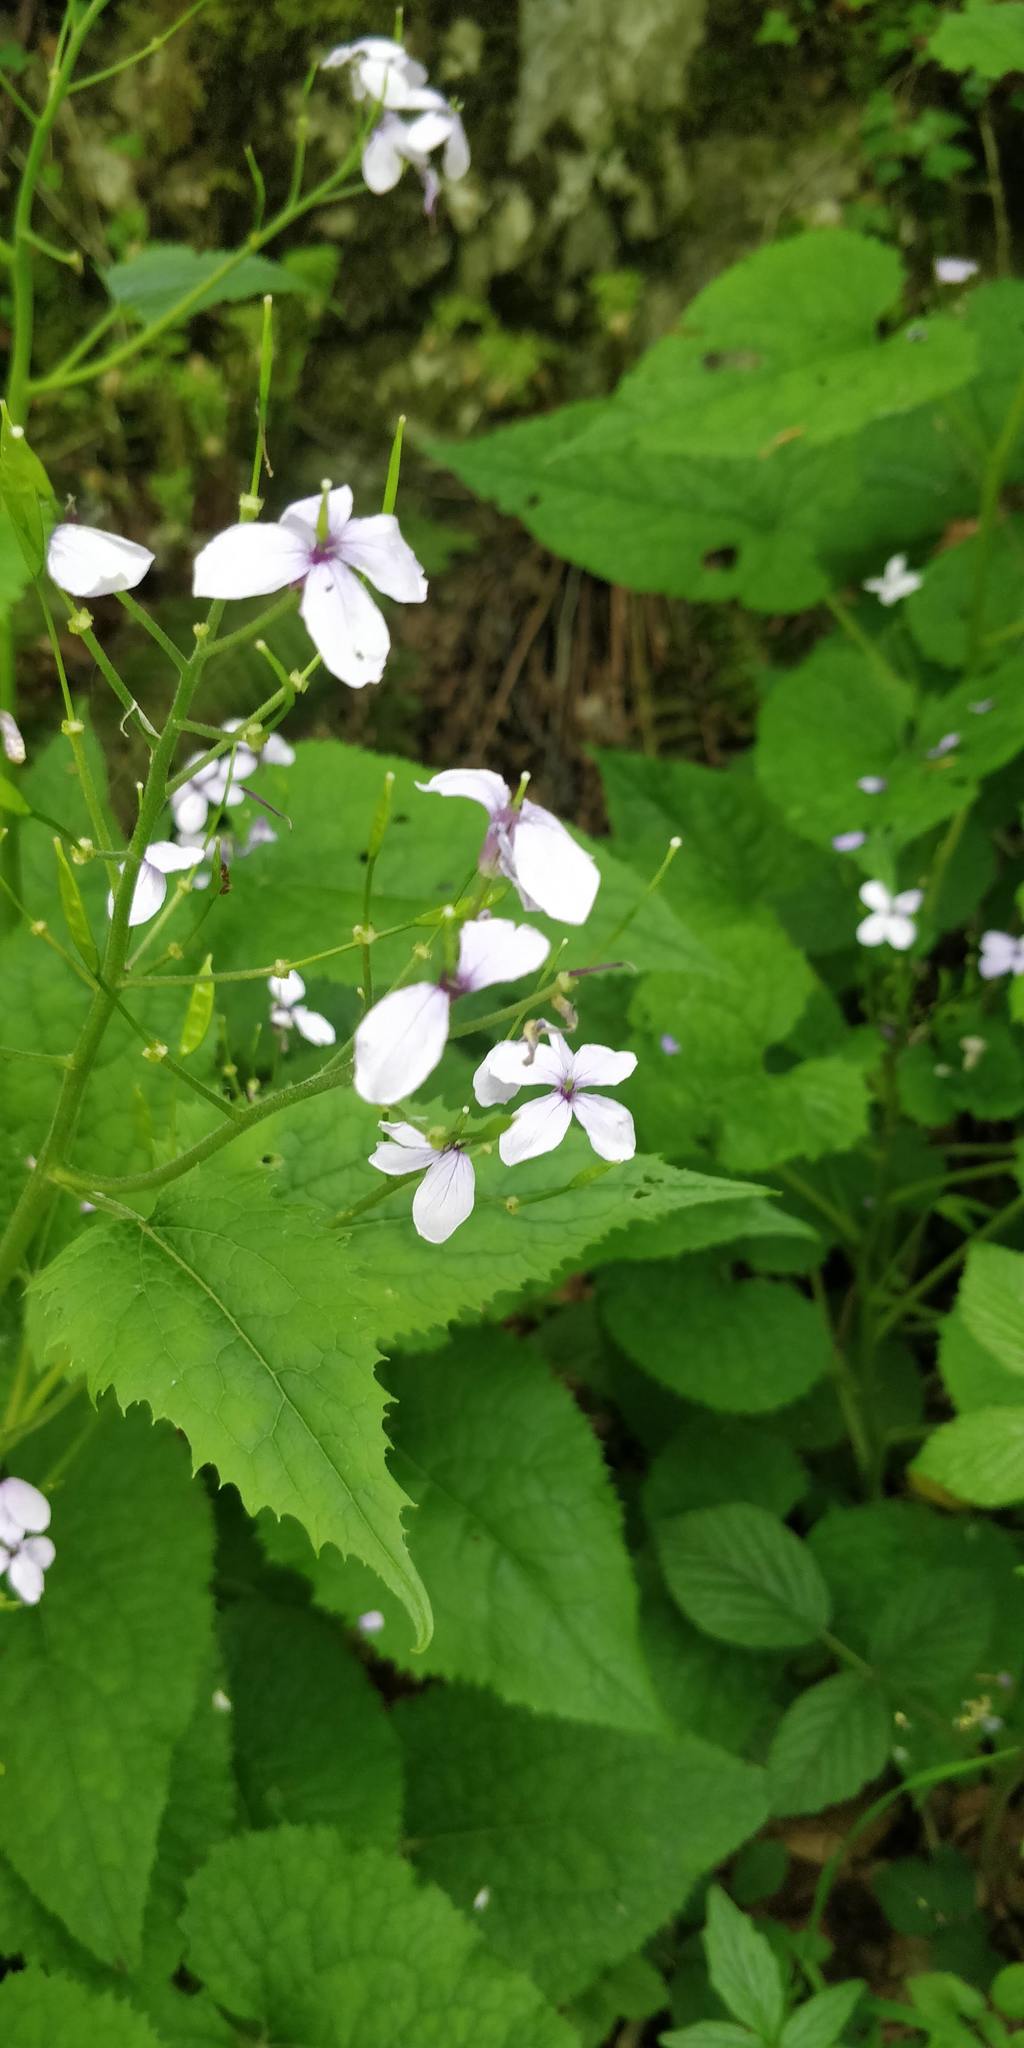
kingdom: Plantae
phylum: Tracheophyta
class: Magnoliopsida
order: Brassicales
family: Brassicaceae
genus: Lunaria
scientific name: Lunaria rediviva
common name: Perennial honesty
